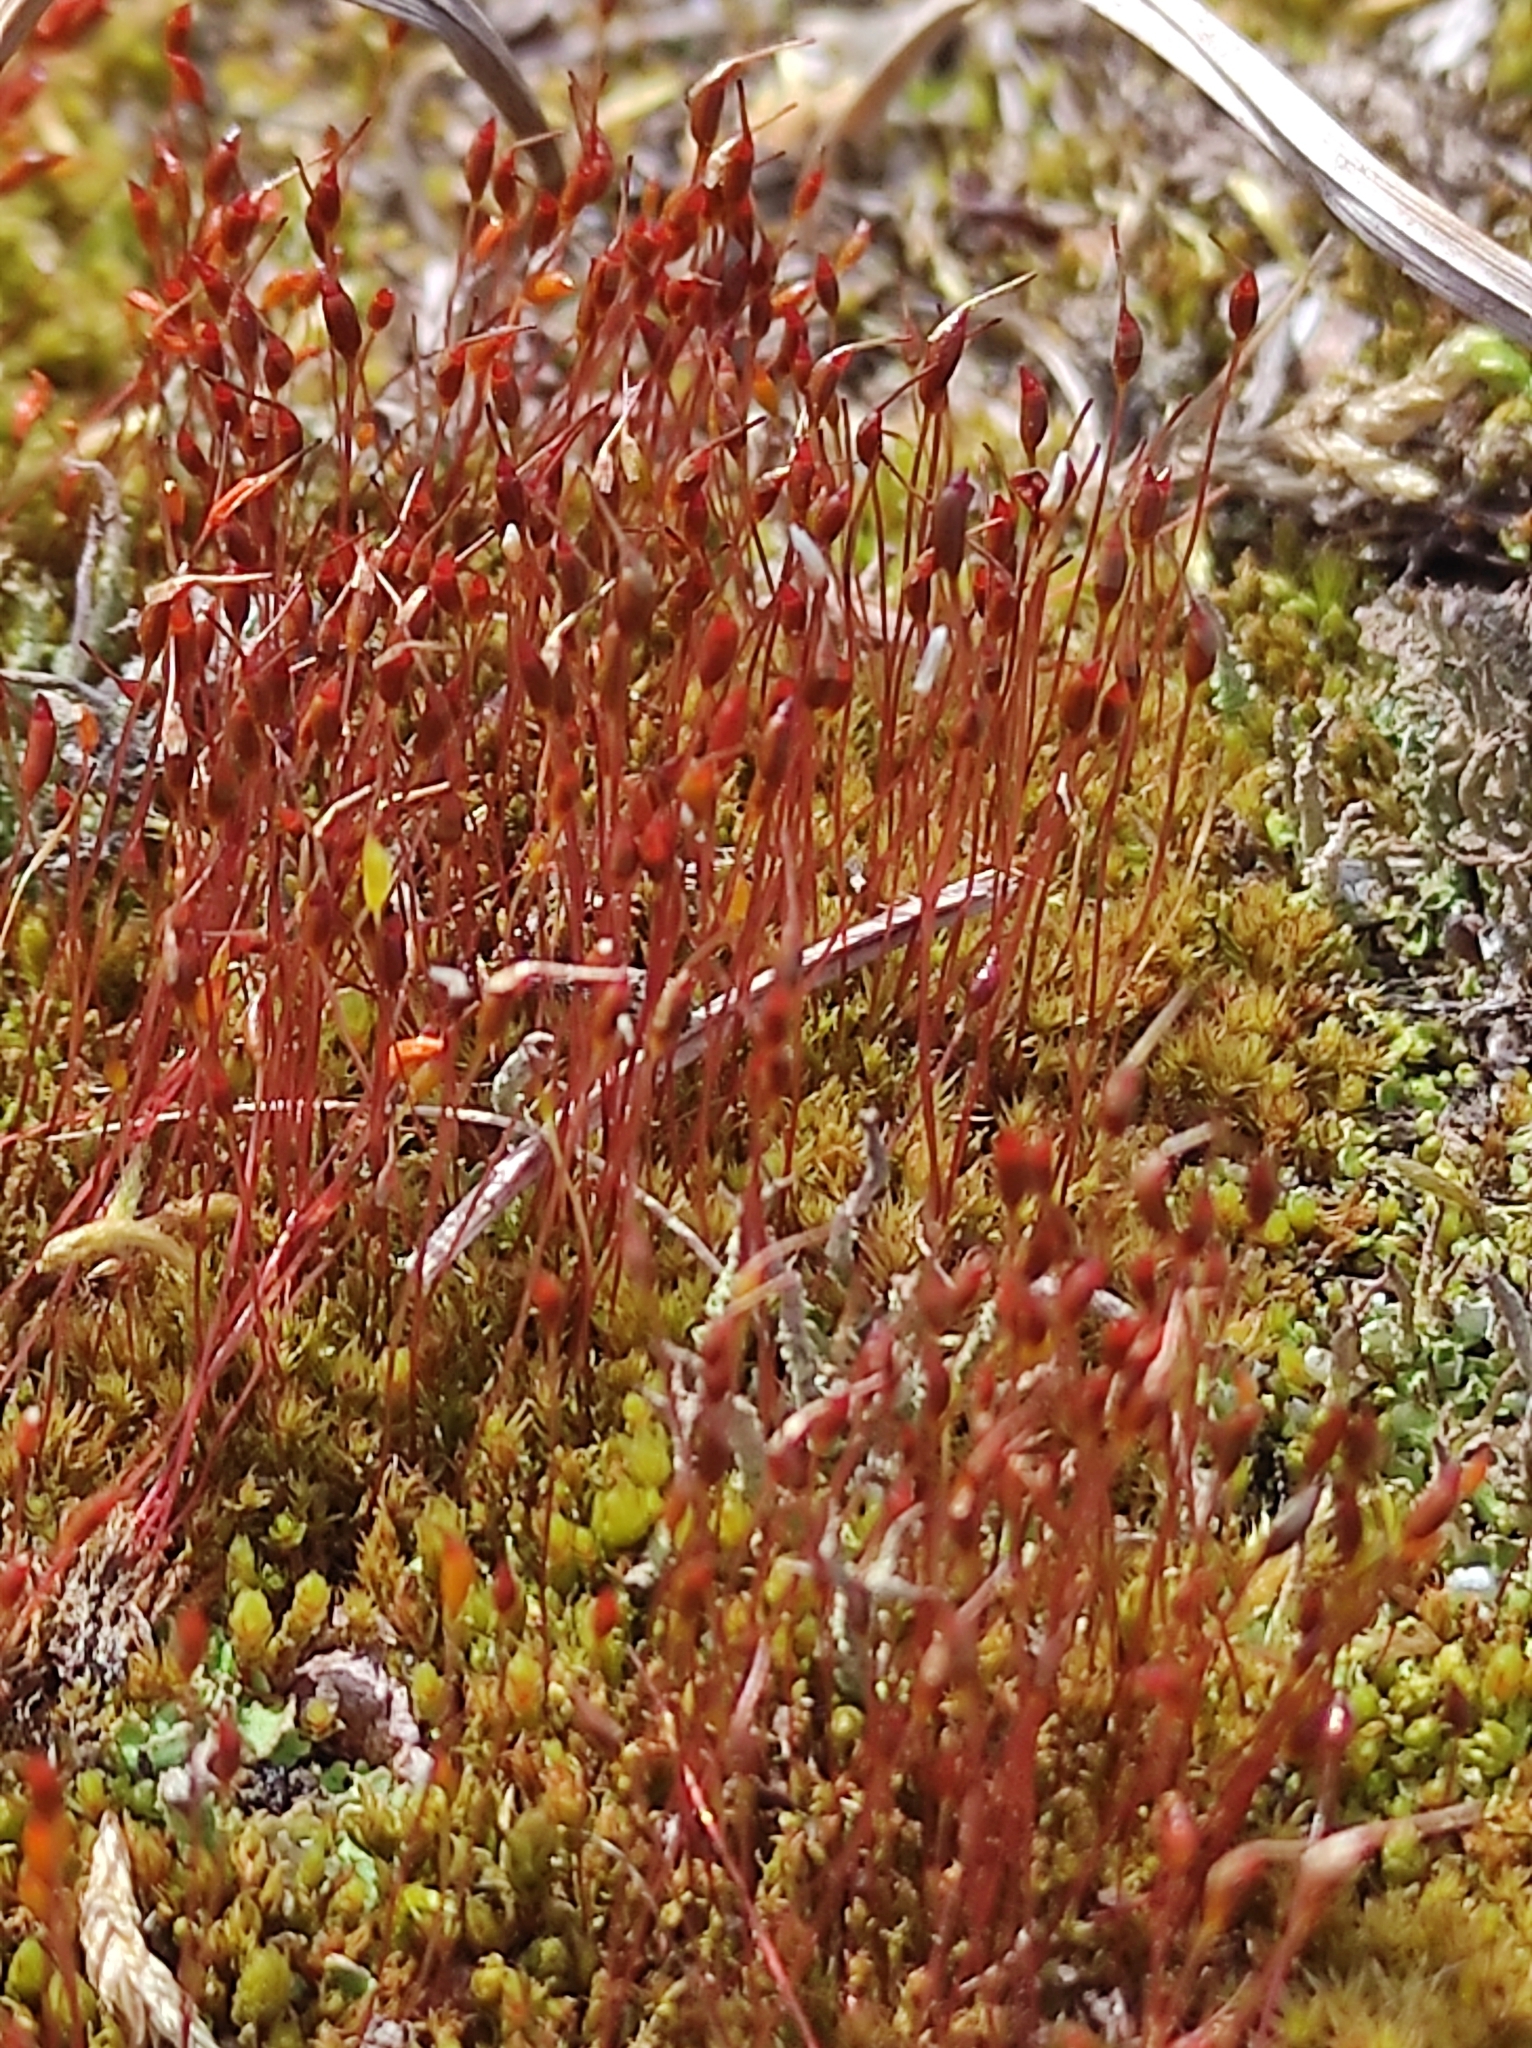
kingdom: Plantae
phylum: Bryophyta
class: Bryopsida
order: Dicranales
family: Ditrichaceae
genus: Ceratodon
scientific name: Ceratodon purpureus
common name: Redshank
